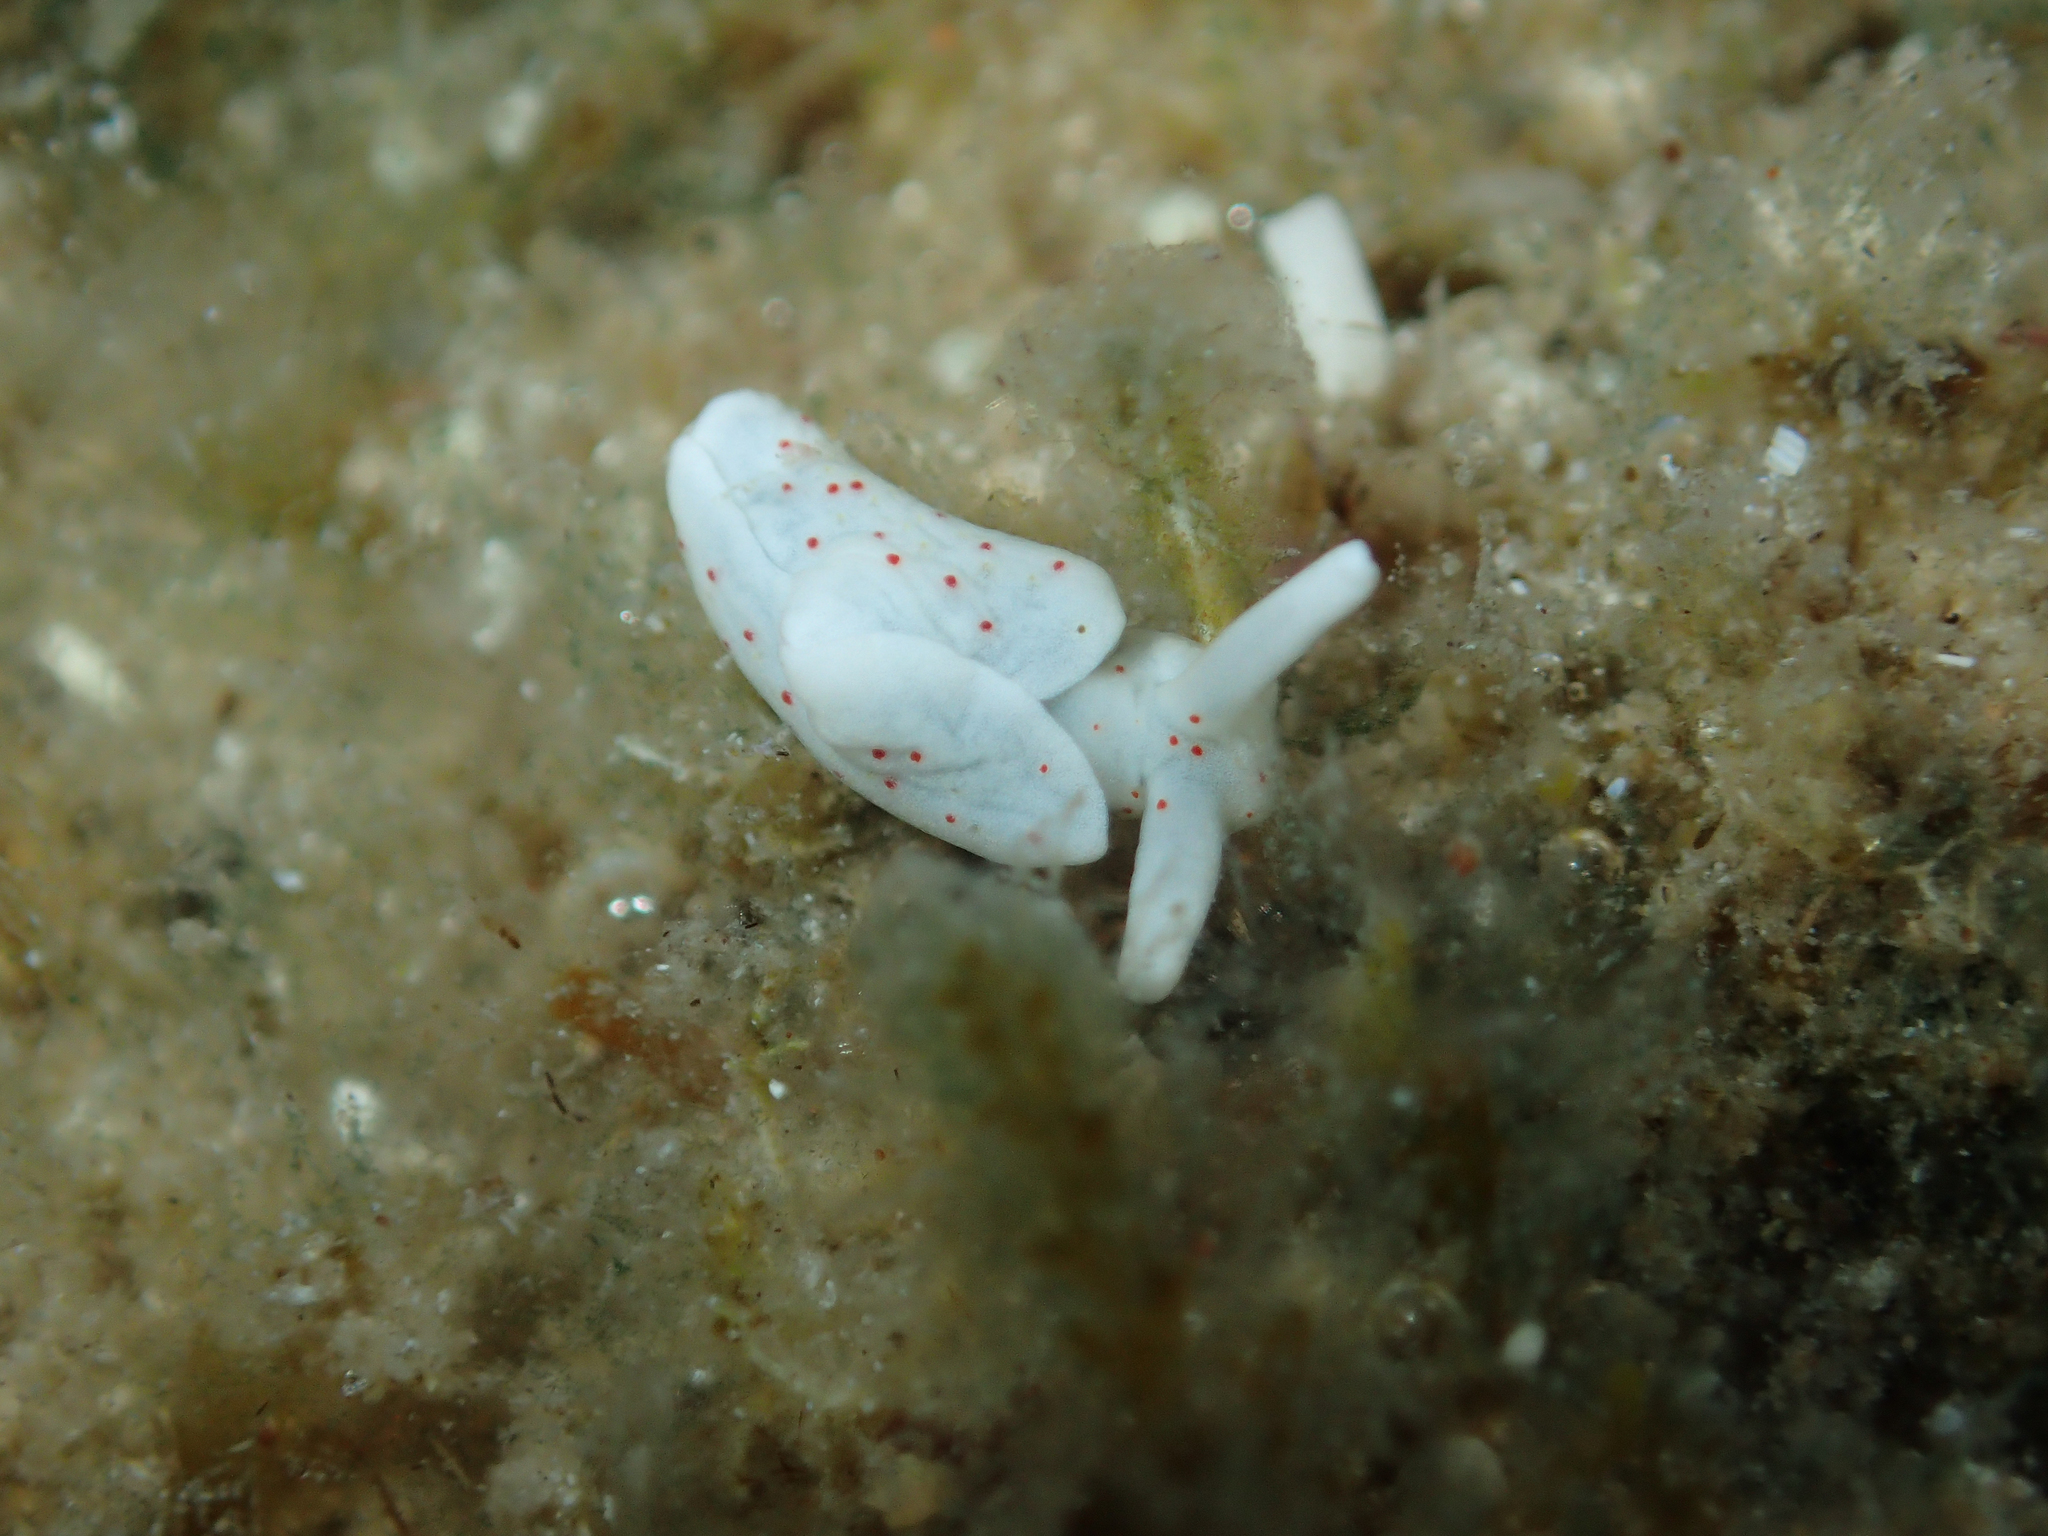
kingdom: Animalia
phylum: Mollusca
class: Gastropoda
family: Plakobranchidae
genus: Elysia
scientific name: Elysia timida
